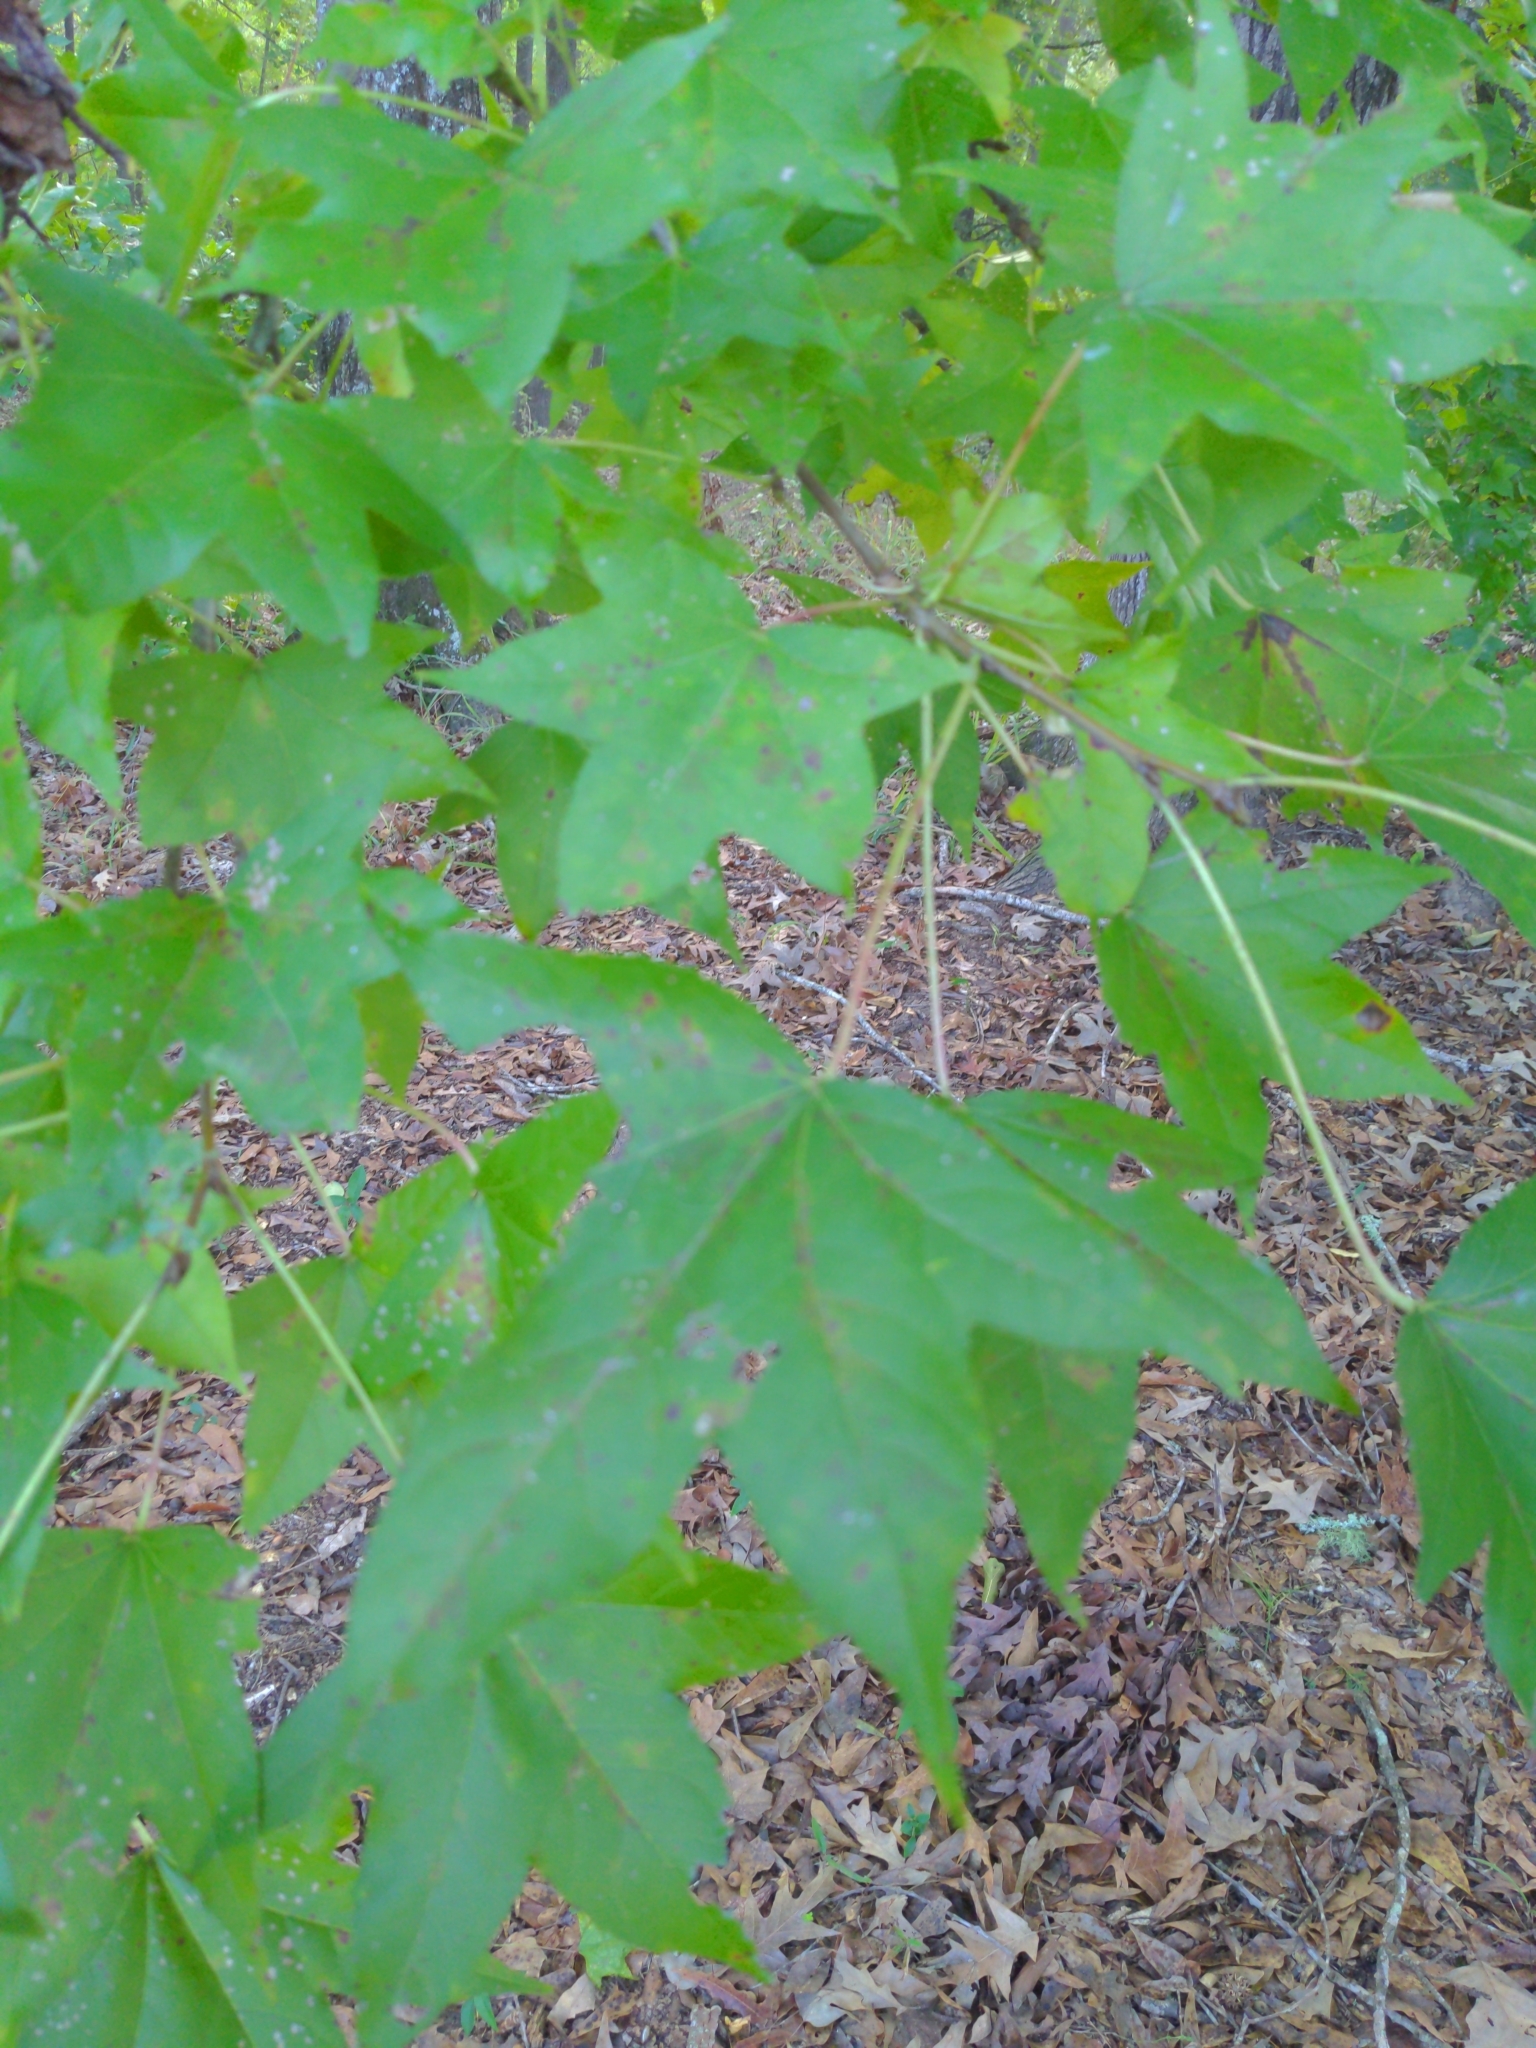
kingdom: Plantae
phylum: Tracheophyta
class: Magnoliopsida
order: Saxifragales
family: Altingiaceae
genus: Liquidambar
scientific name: Liquidambar styraciflua
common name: Sweet gum
